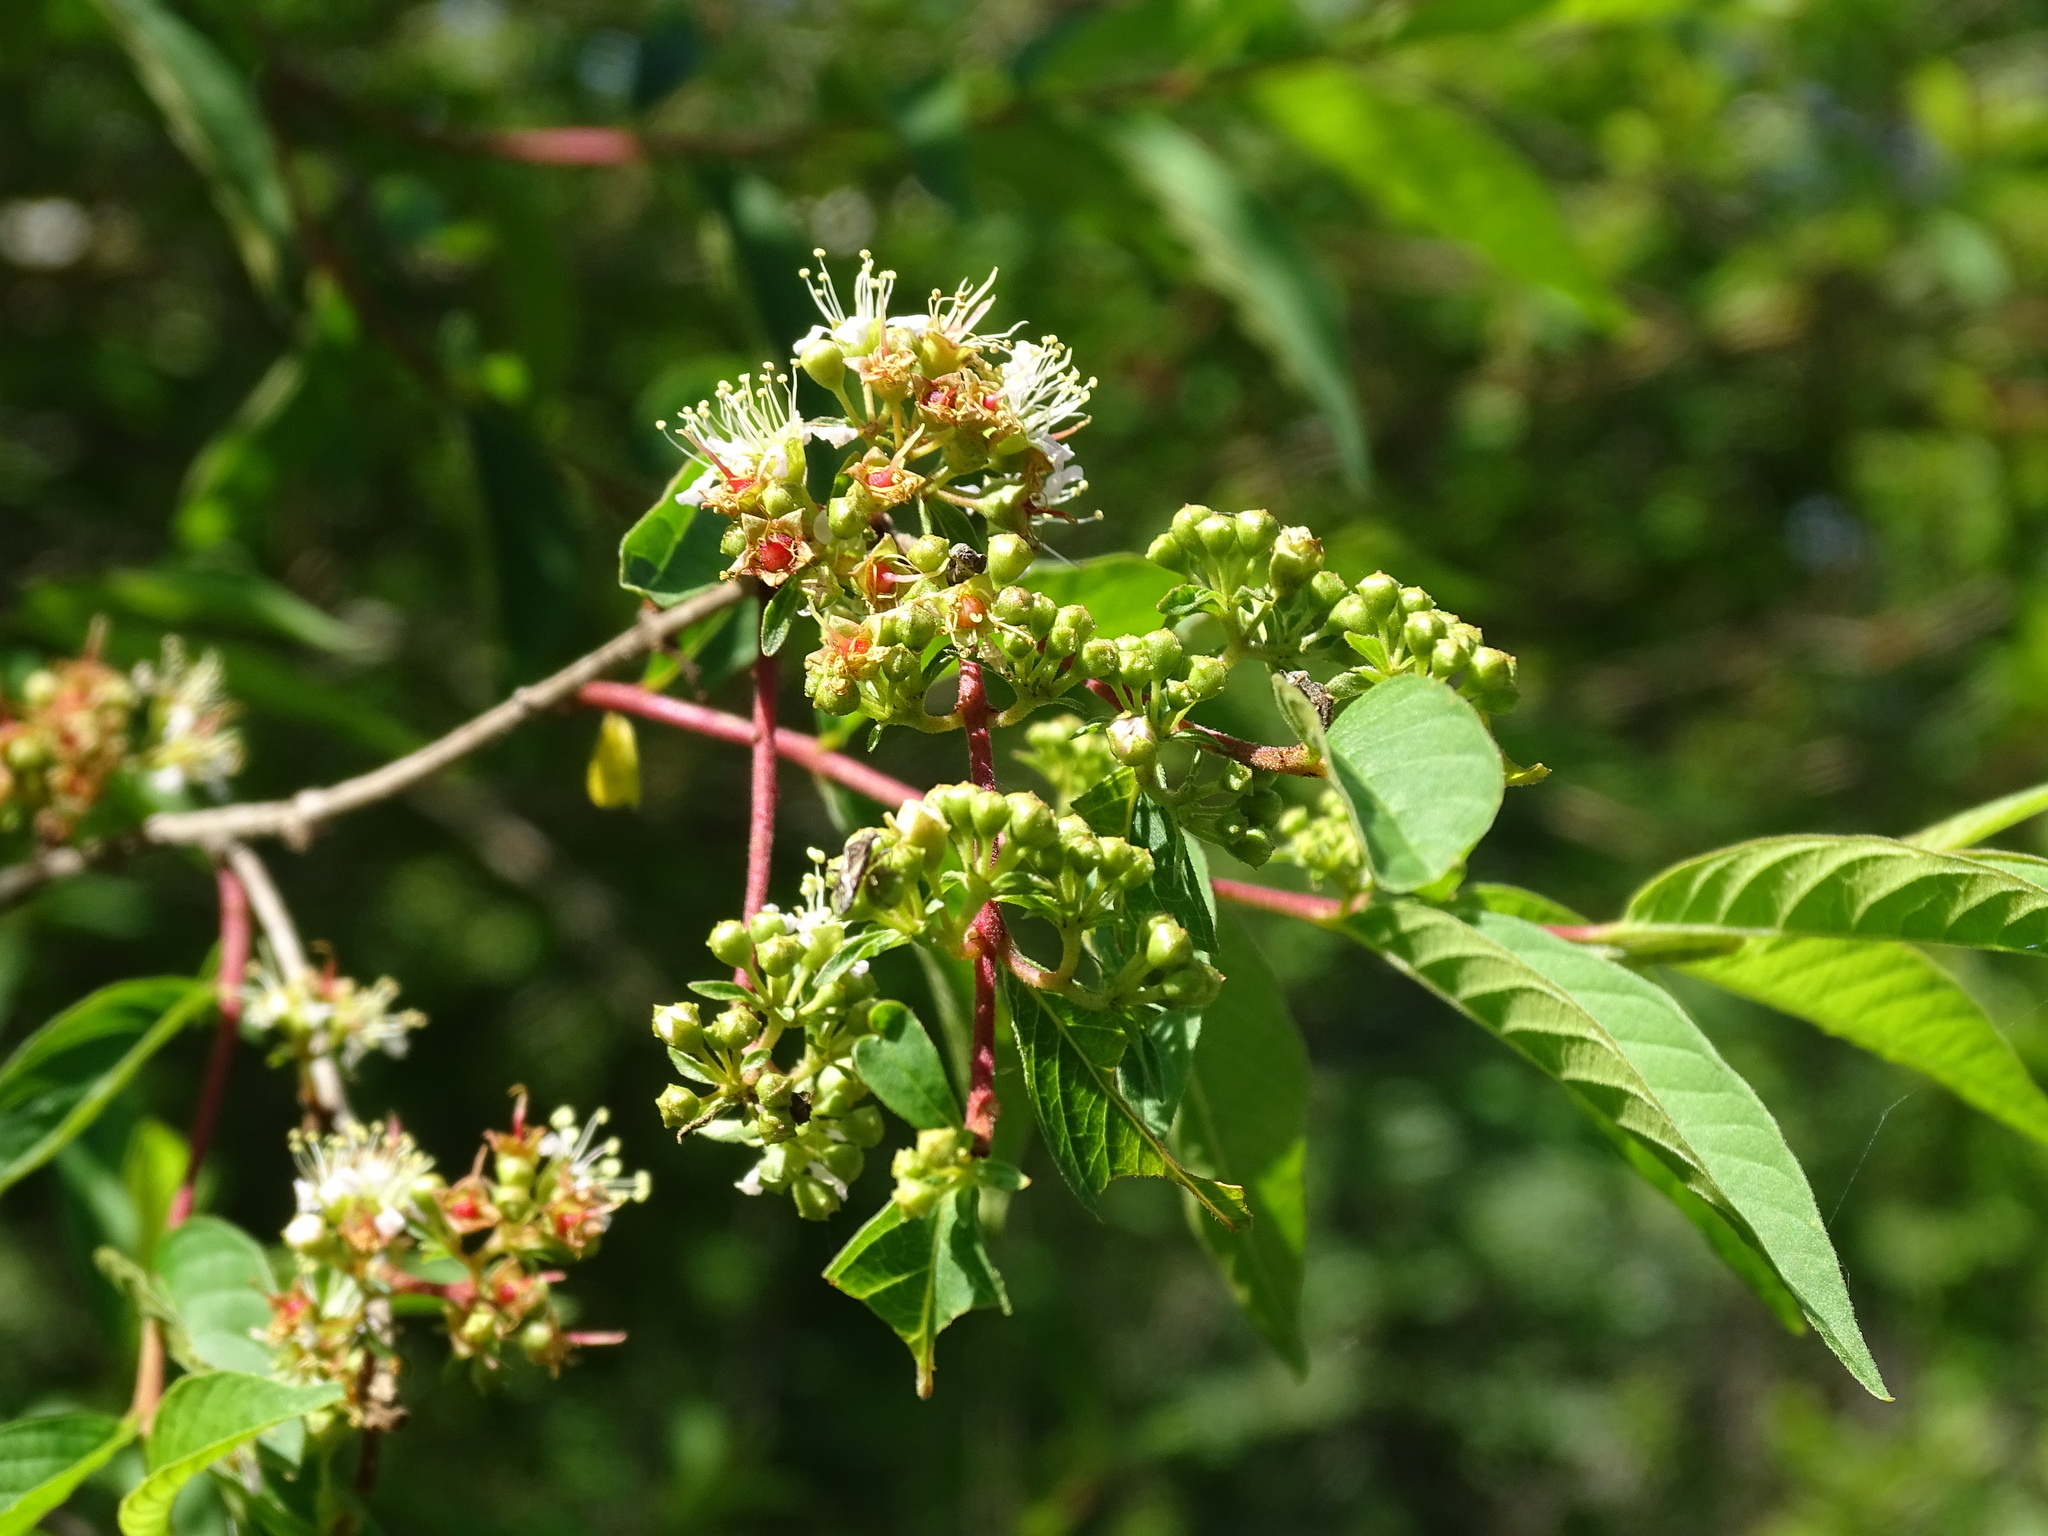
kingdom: Plantae
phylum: Tracheophyta
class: Magnoliopsida
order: Myrtales
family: Lythraceae
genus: Adenaria
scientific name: Adenaria floribunda
